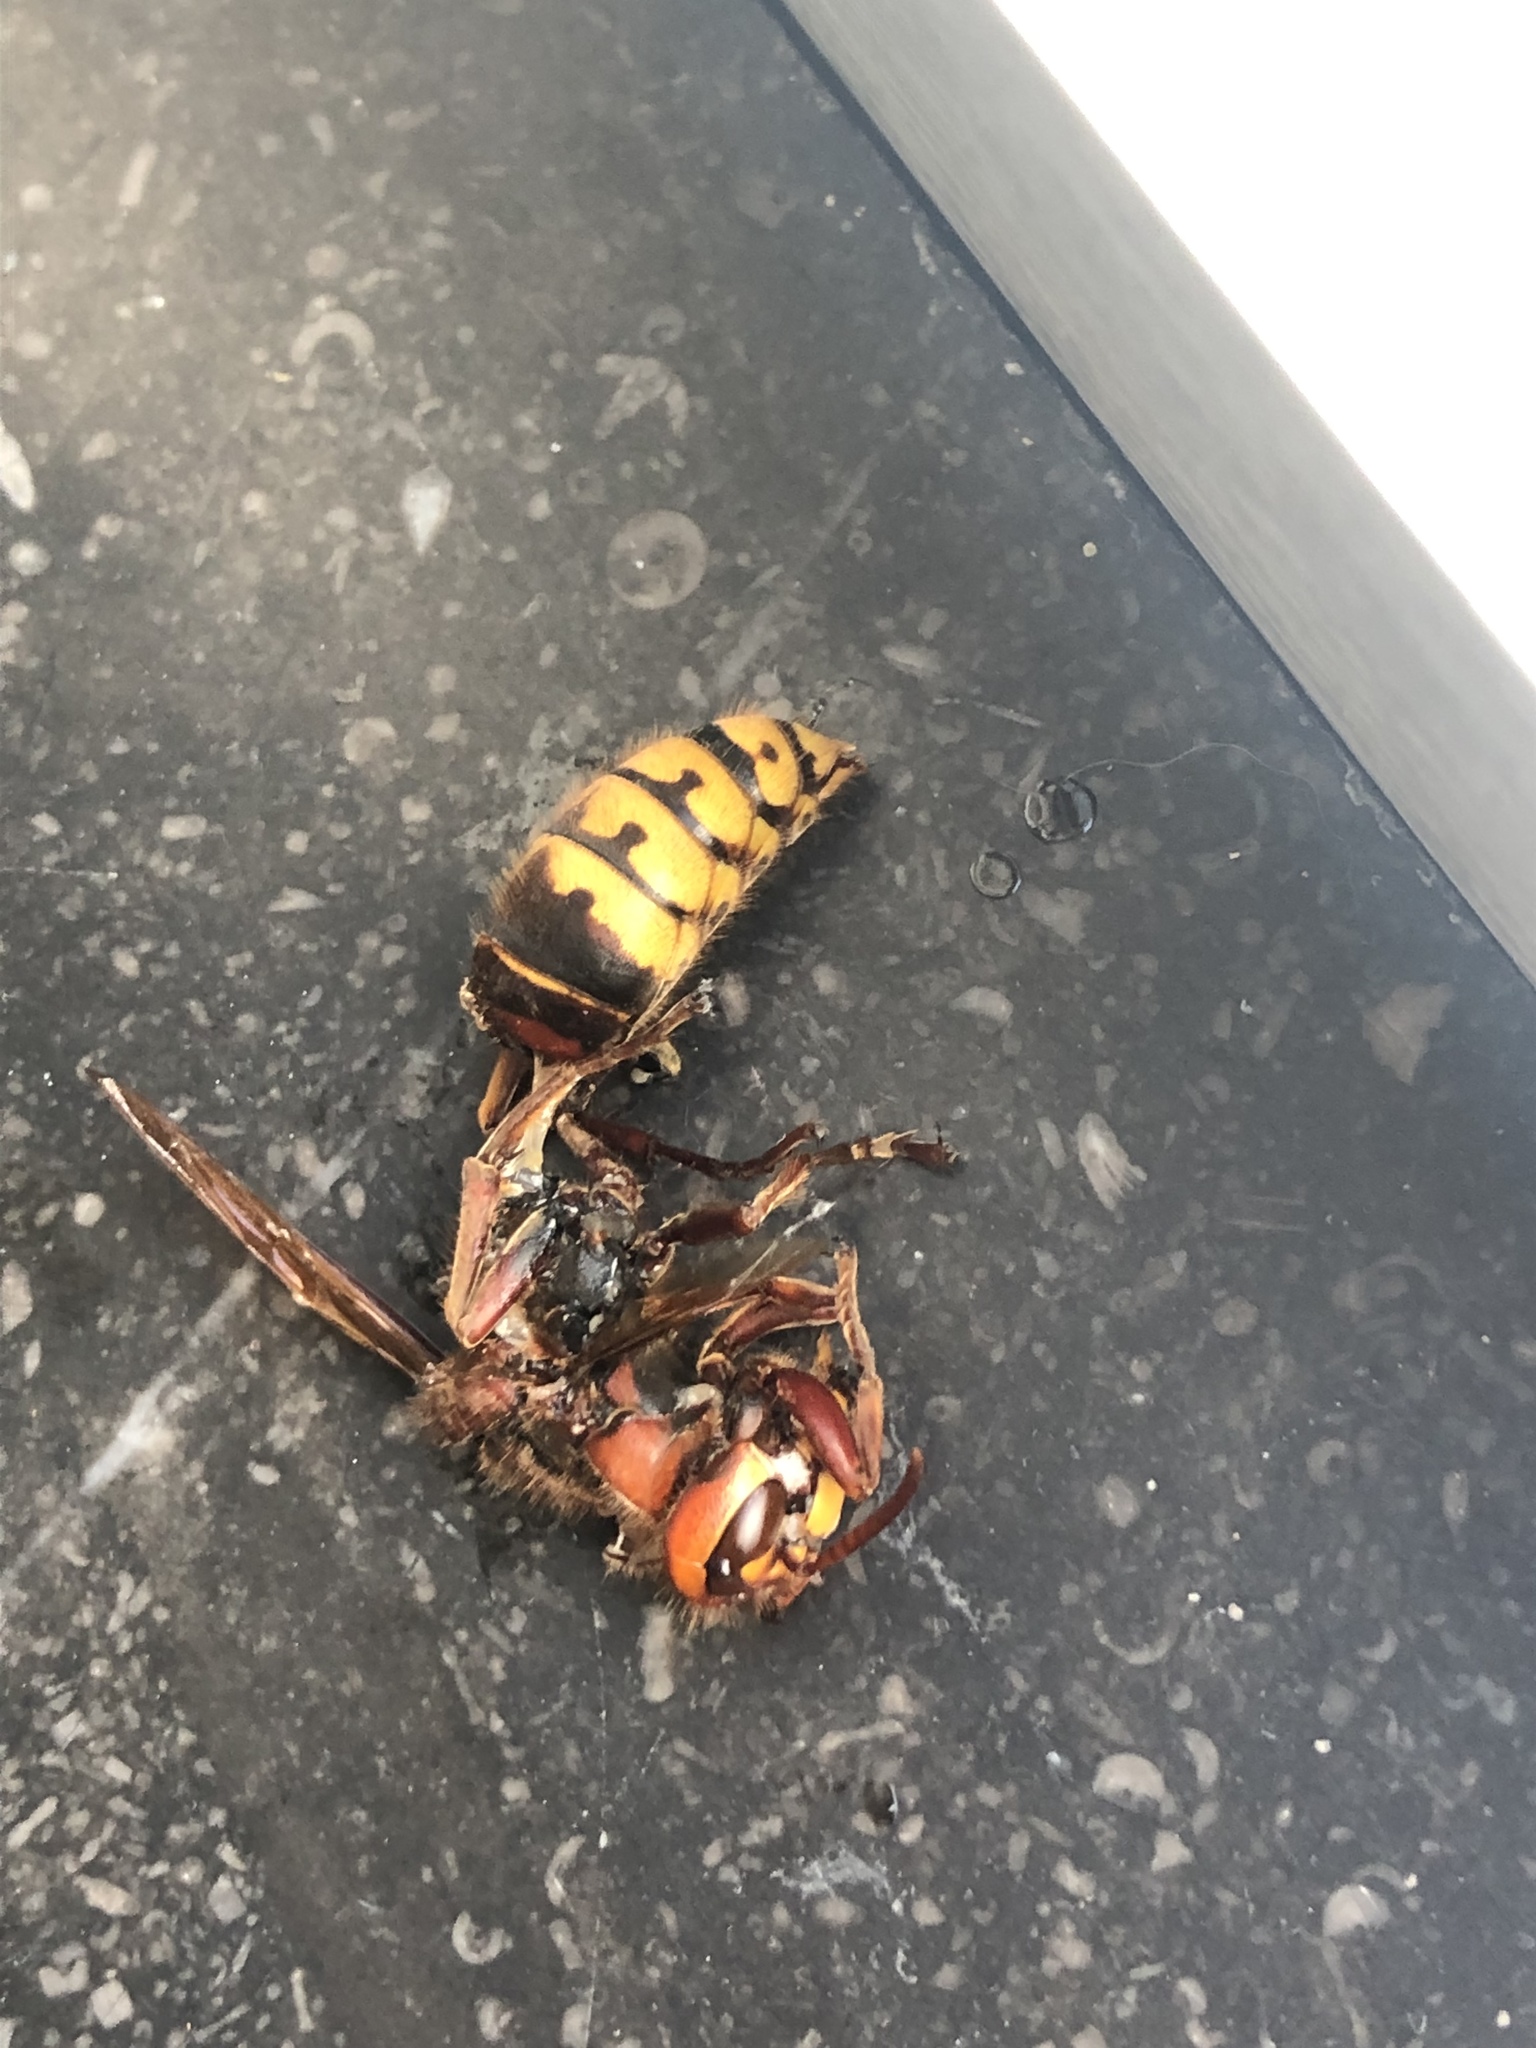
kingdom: Animalia
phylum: Arthropoda
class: Insecta
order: Hymenoptera
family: Vespidae
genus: Vespa
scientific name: Vespa crabro
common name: Hornet
